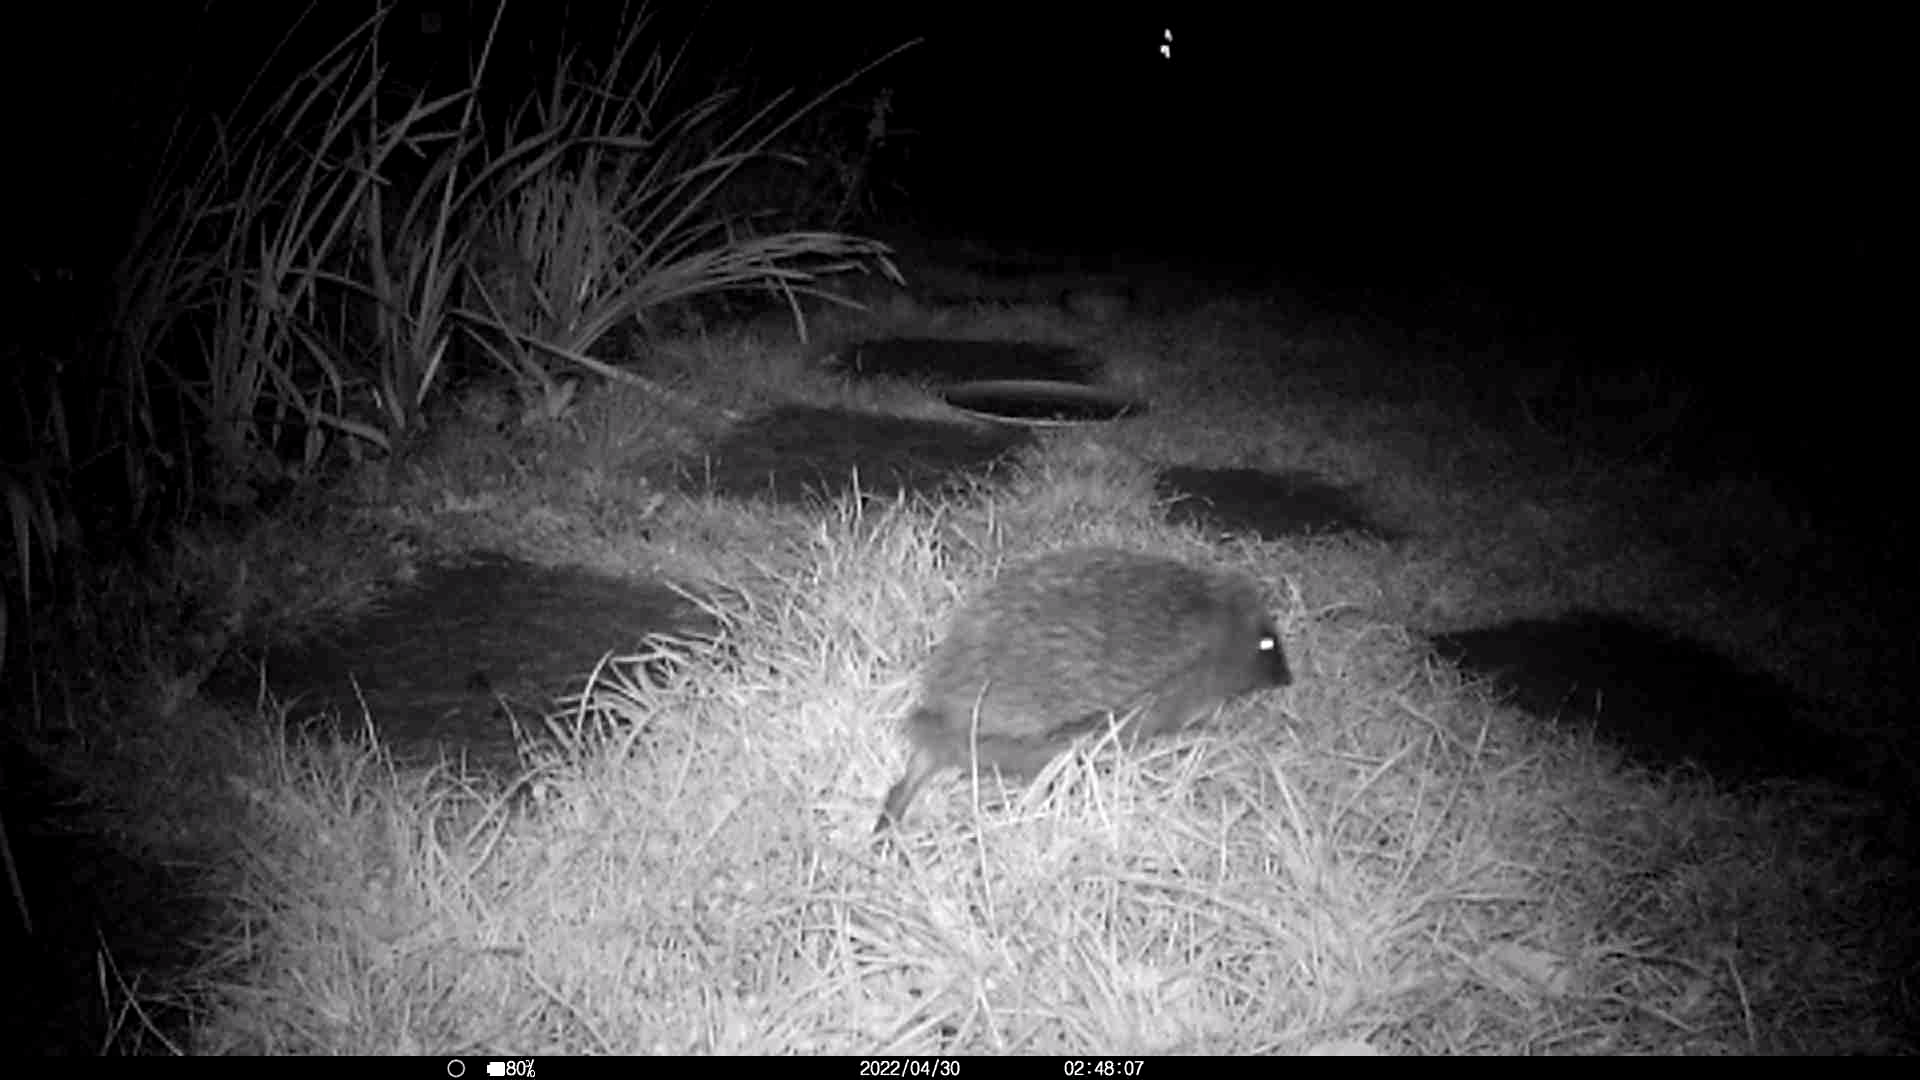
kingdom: Animalia
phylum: Chordata
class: Mammalia
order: Erinaceomorpha
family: Erinaceidae
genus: Erinaceus
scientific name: Erinaceus europaeus
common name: West european hedgehog
